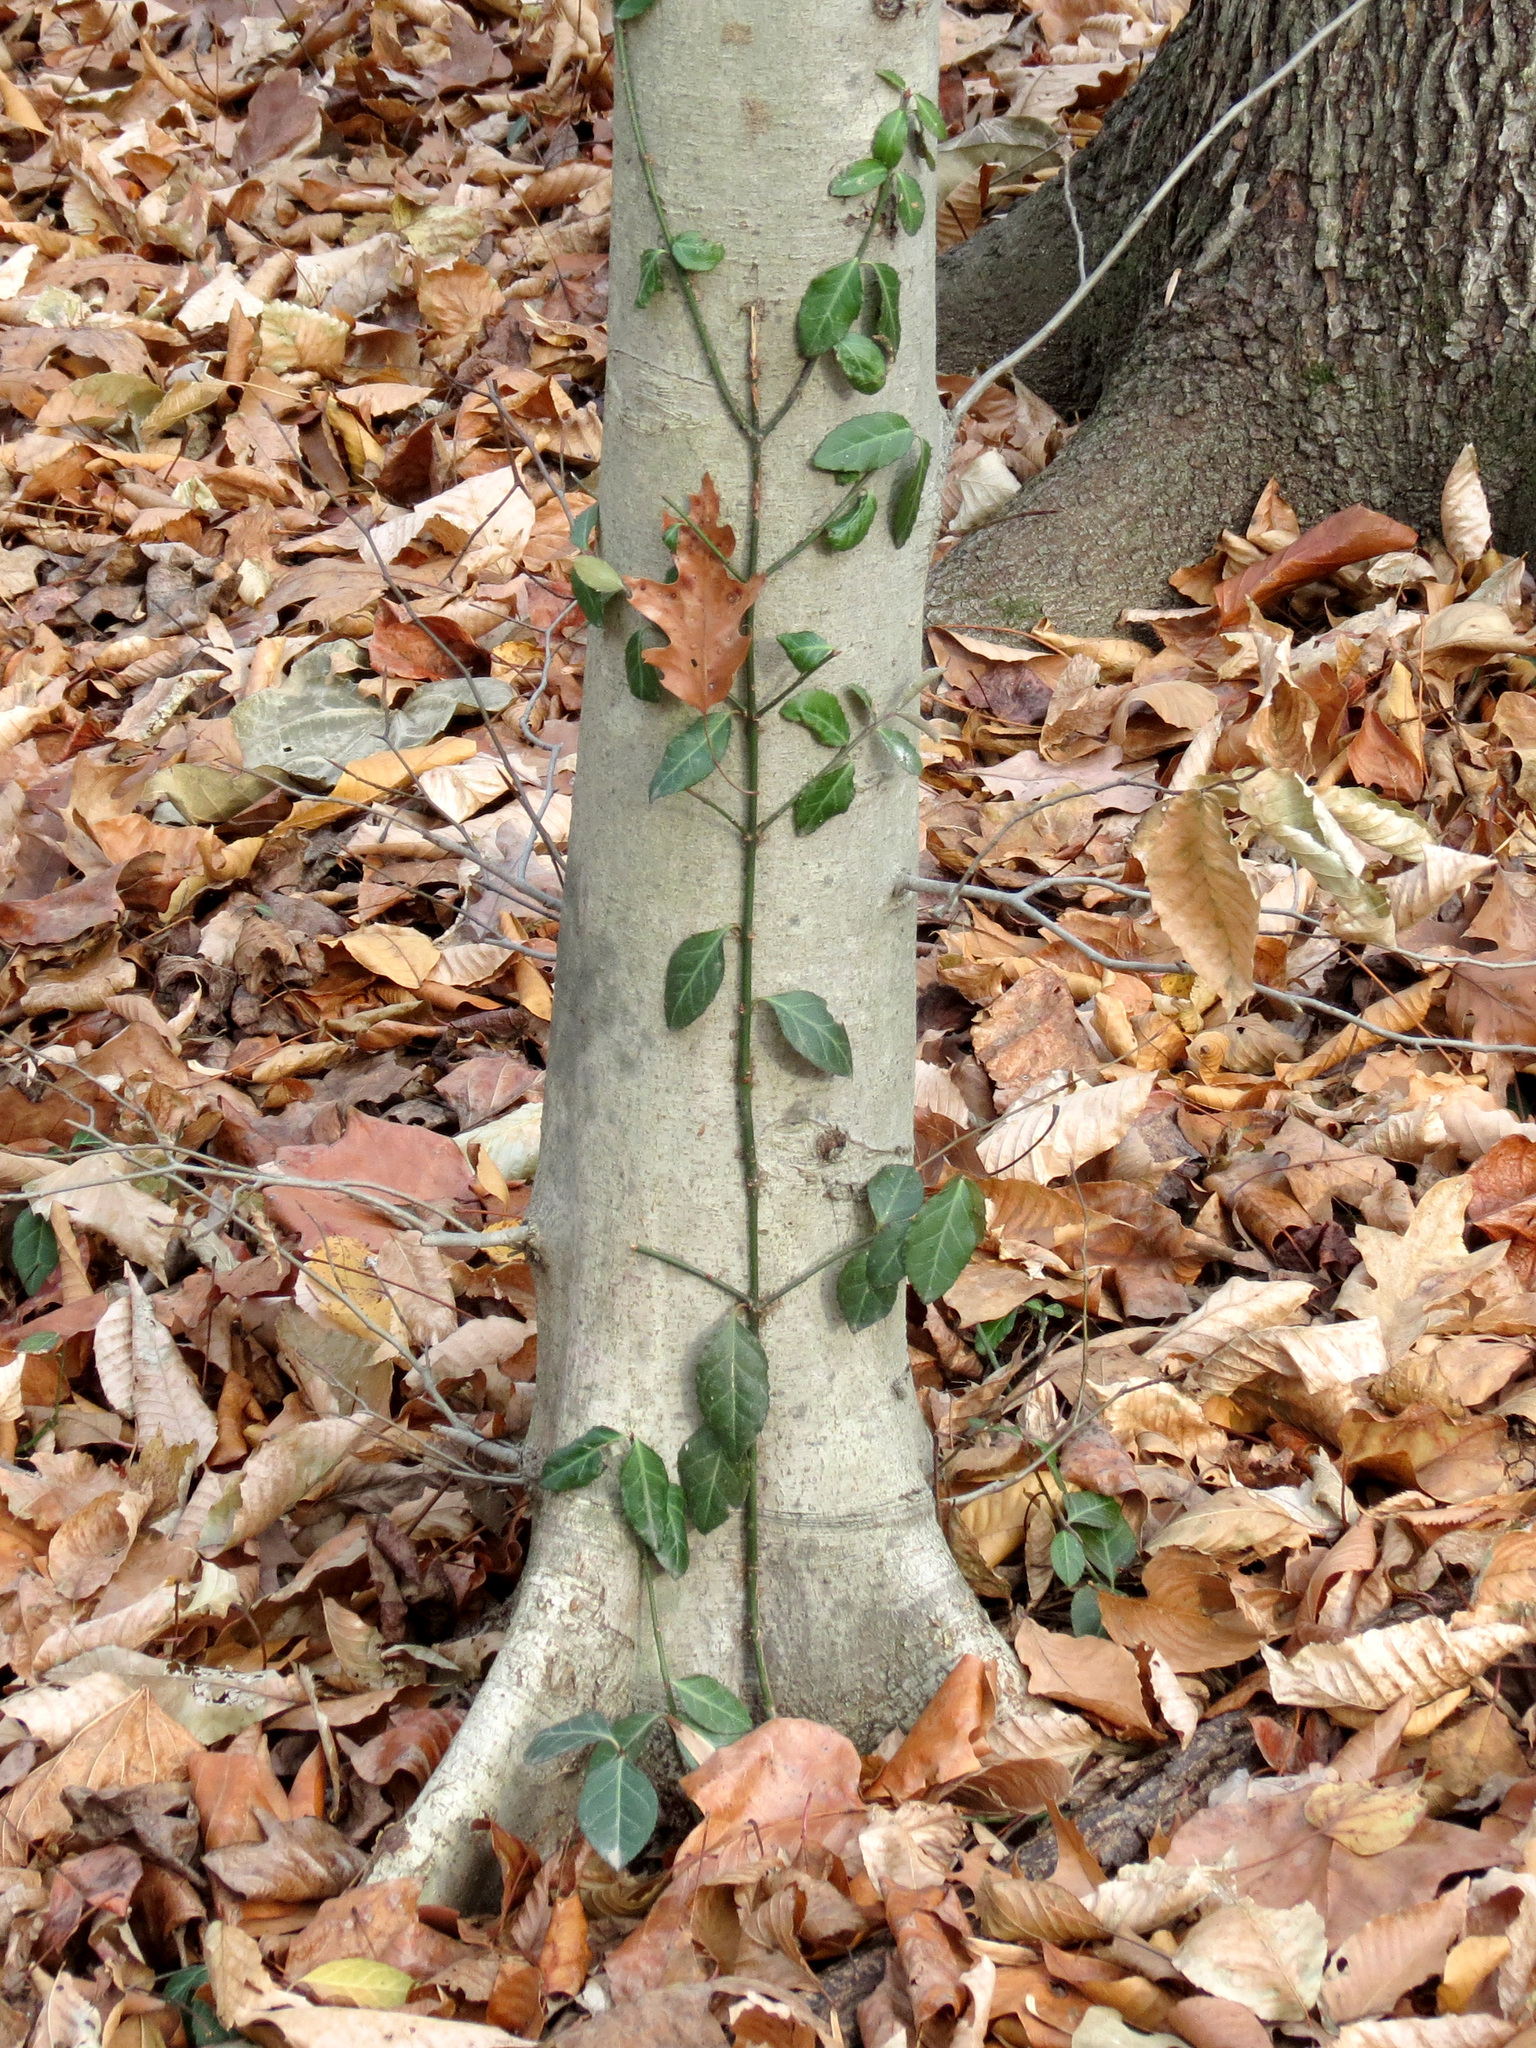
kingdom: Plantae
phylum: Tracheophyta
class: Magnoliopsida
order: Celastrales
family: Celastraceae
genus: Euonymus
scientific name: Euonymus fortunei
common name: Climbing euonymus
